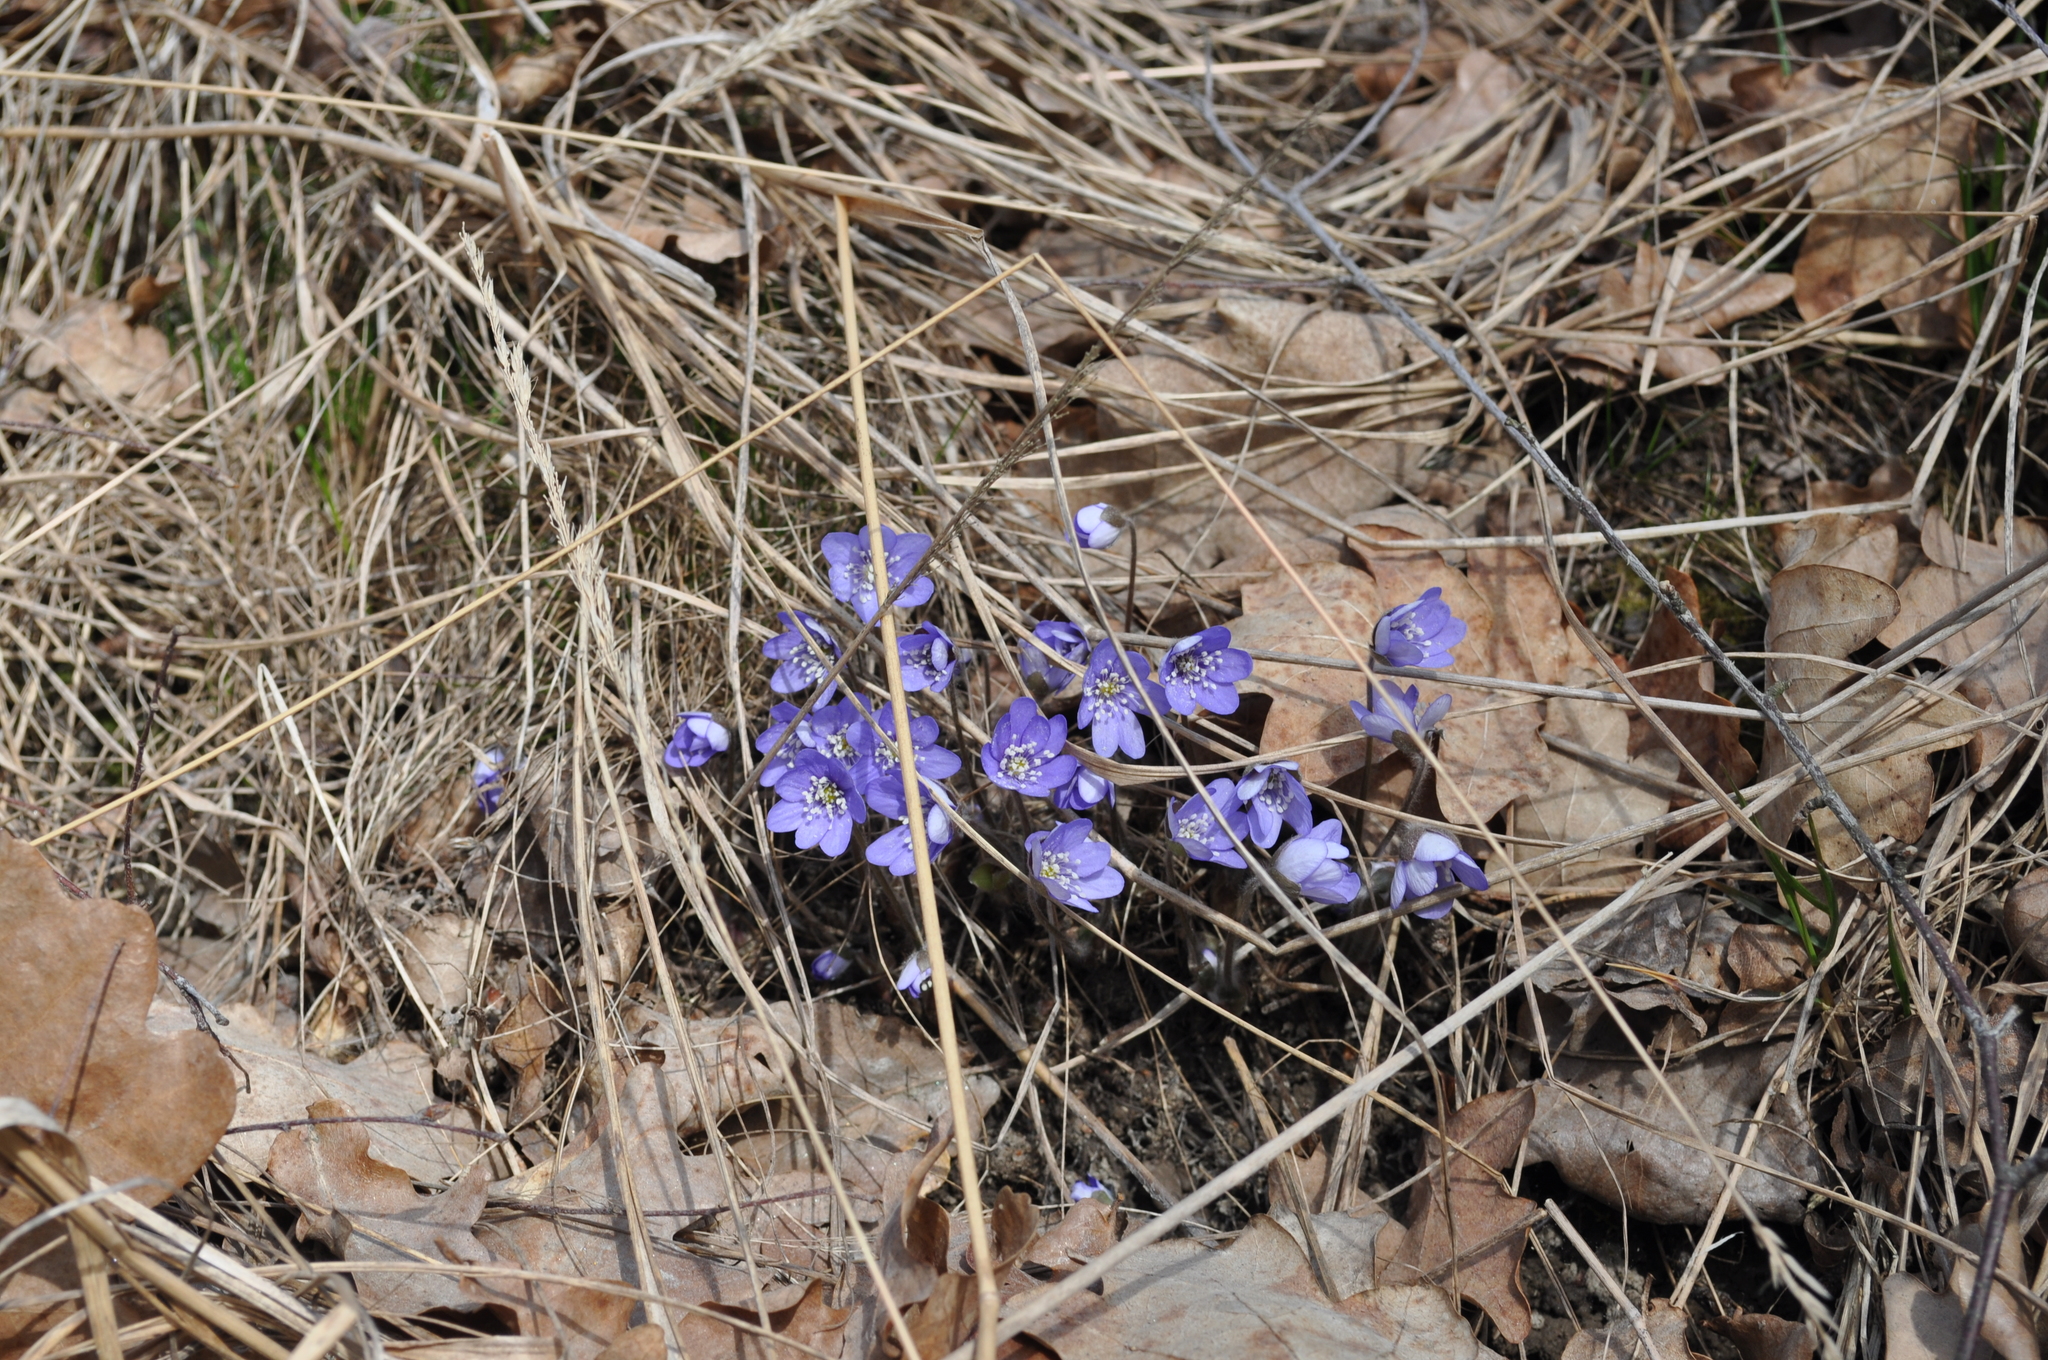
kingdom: Plantae
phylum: Tracheophyta
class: Magnoliopsida
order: Ranunculales
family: Ranunculaceae
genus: Hepatica
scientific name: Hepatica nobilis
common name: Liverleaf
